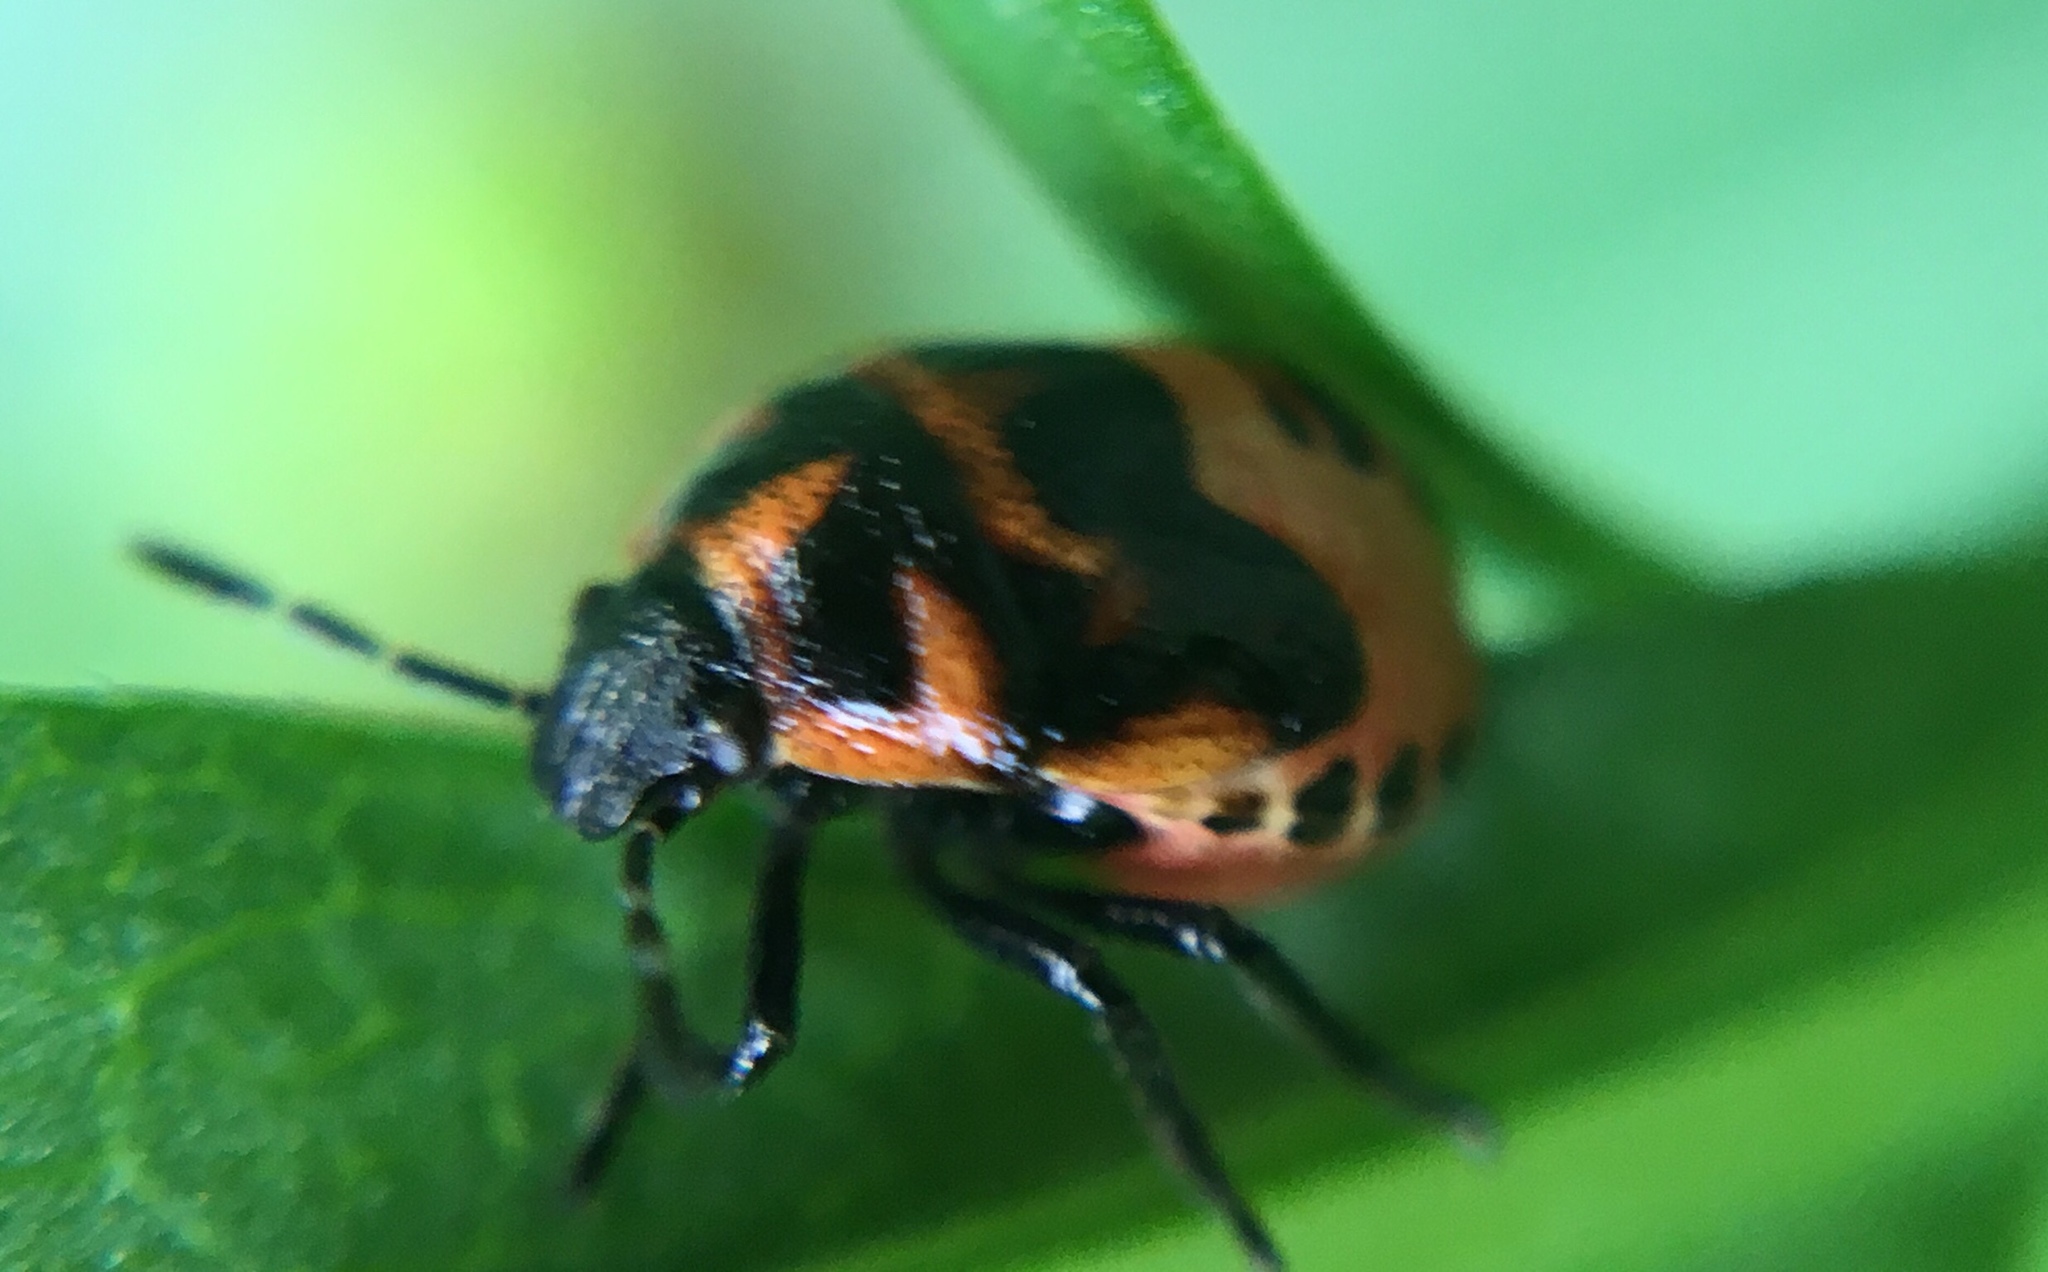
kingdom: Animalia
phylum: Arthropoda
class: Insecta
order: Hemiptera
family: Pentatomidae
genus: Cosmopepla
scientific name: Cosmopepla lintneriana
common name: Twice-stabbed stink bug
